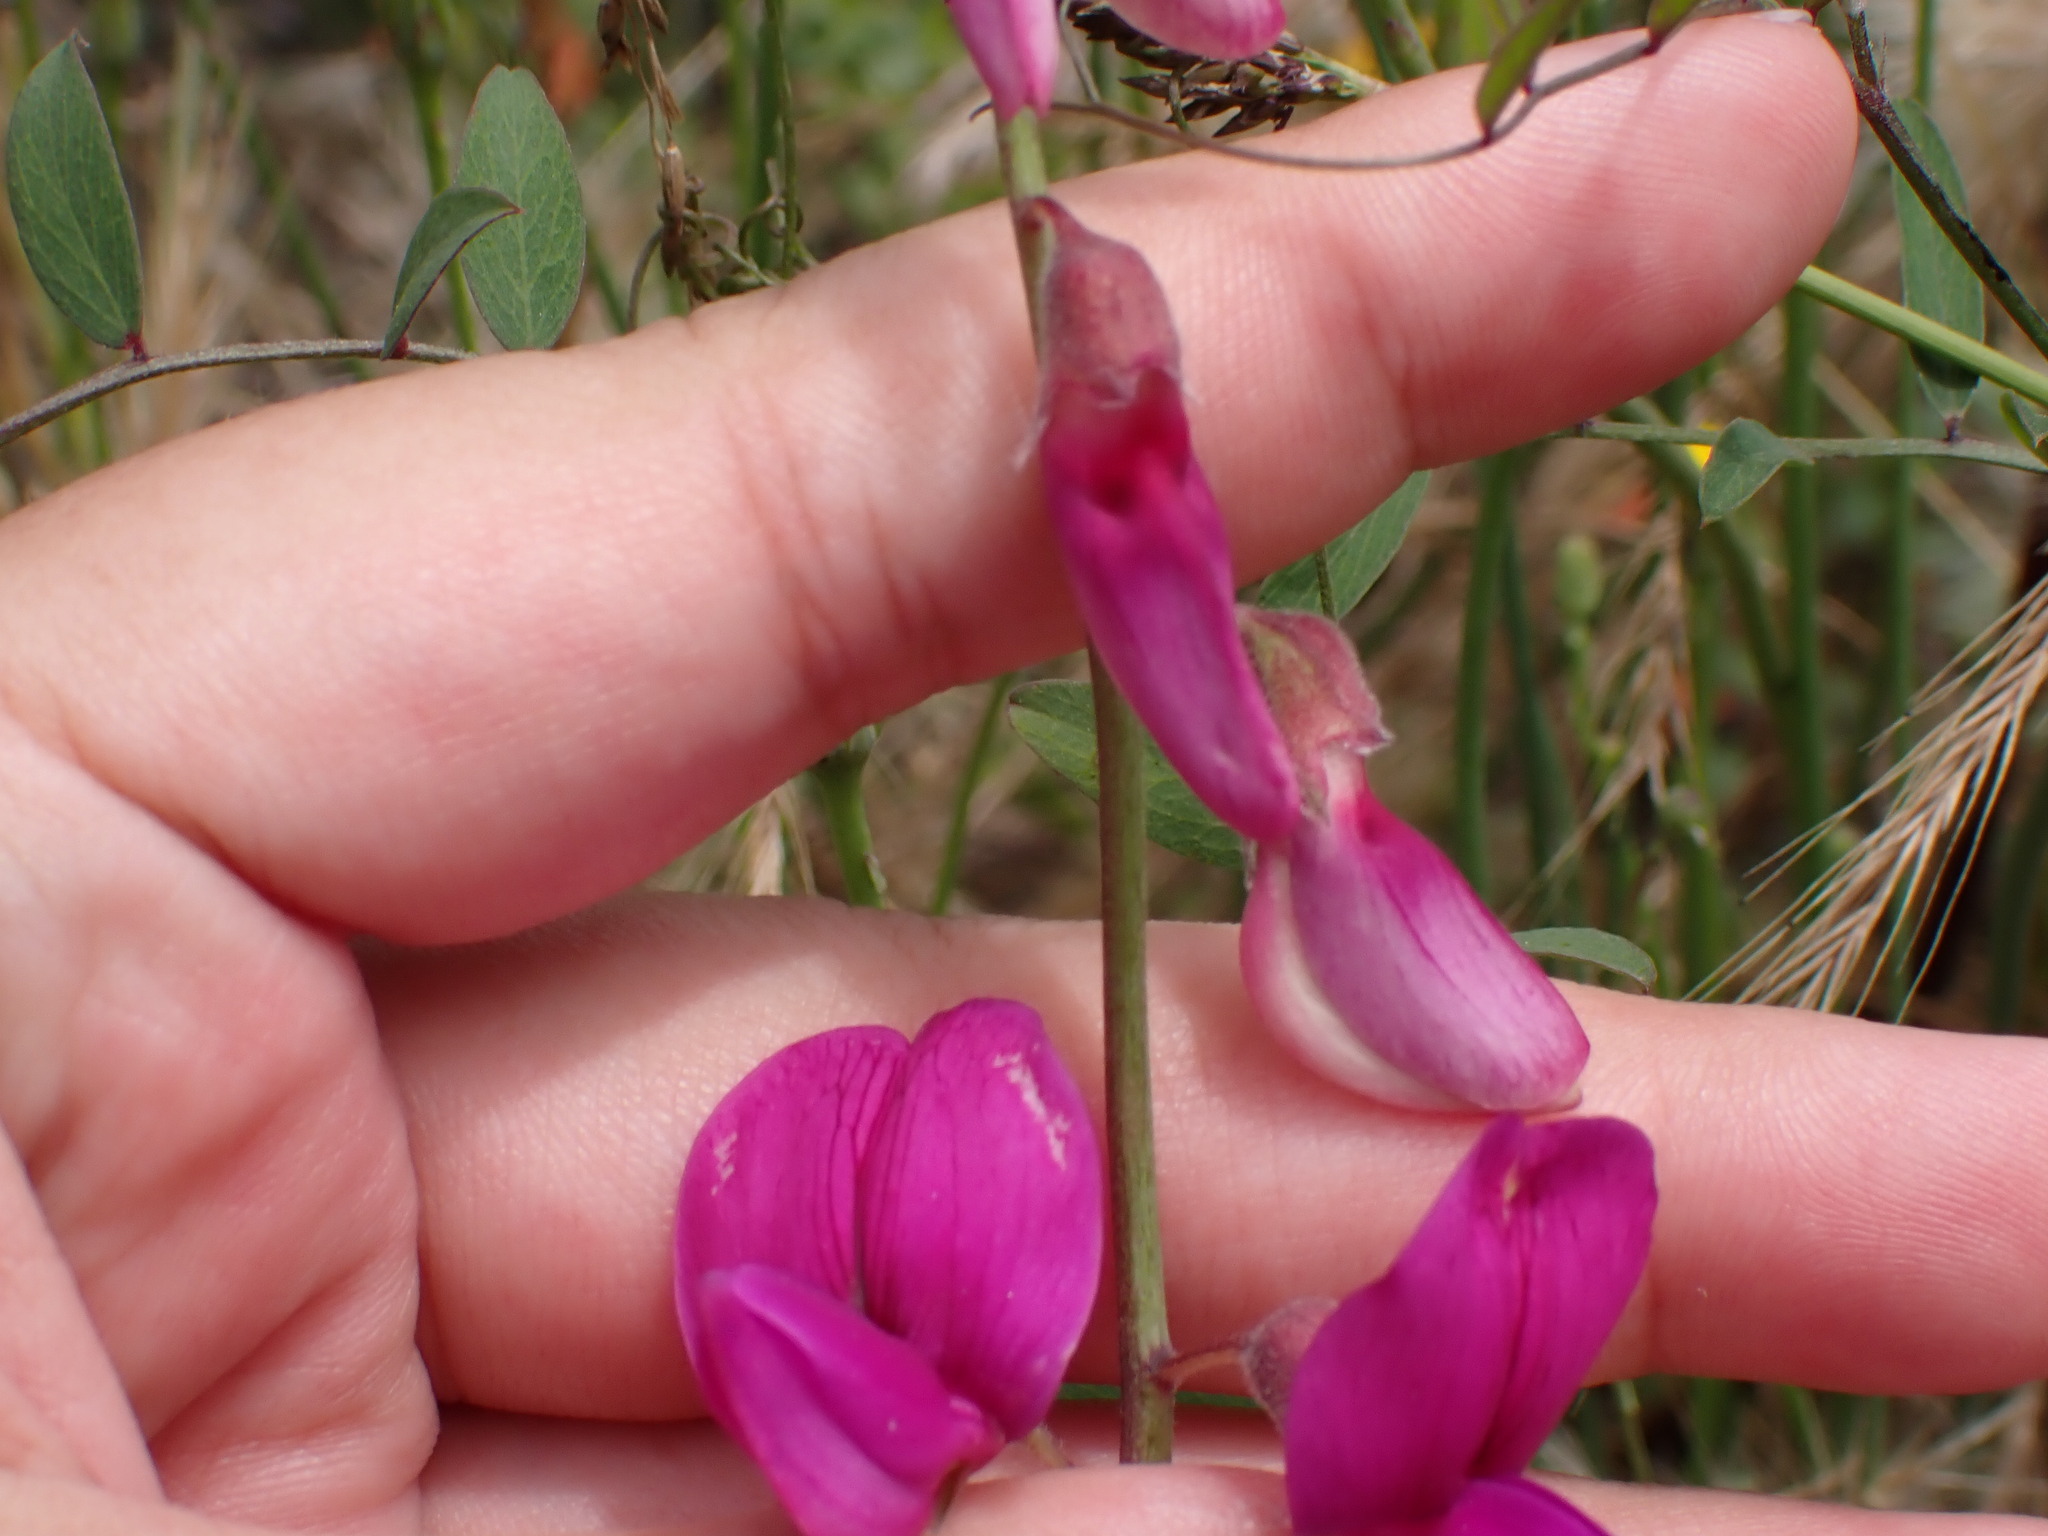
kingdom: Plantae
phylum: Tracheophyta
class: Magnoliopsida
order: Fabales
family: Fabaceae
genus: Lathyrus
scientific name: Lathyrus vestitus
